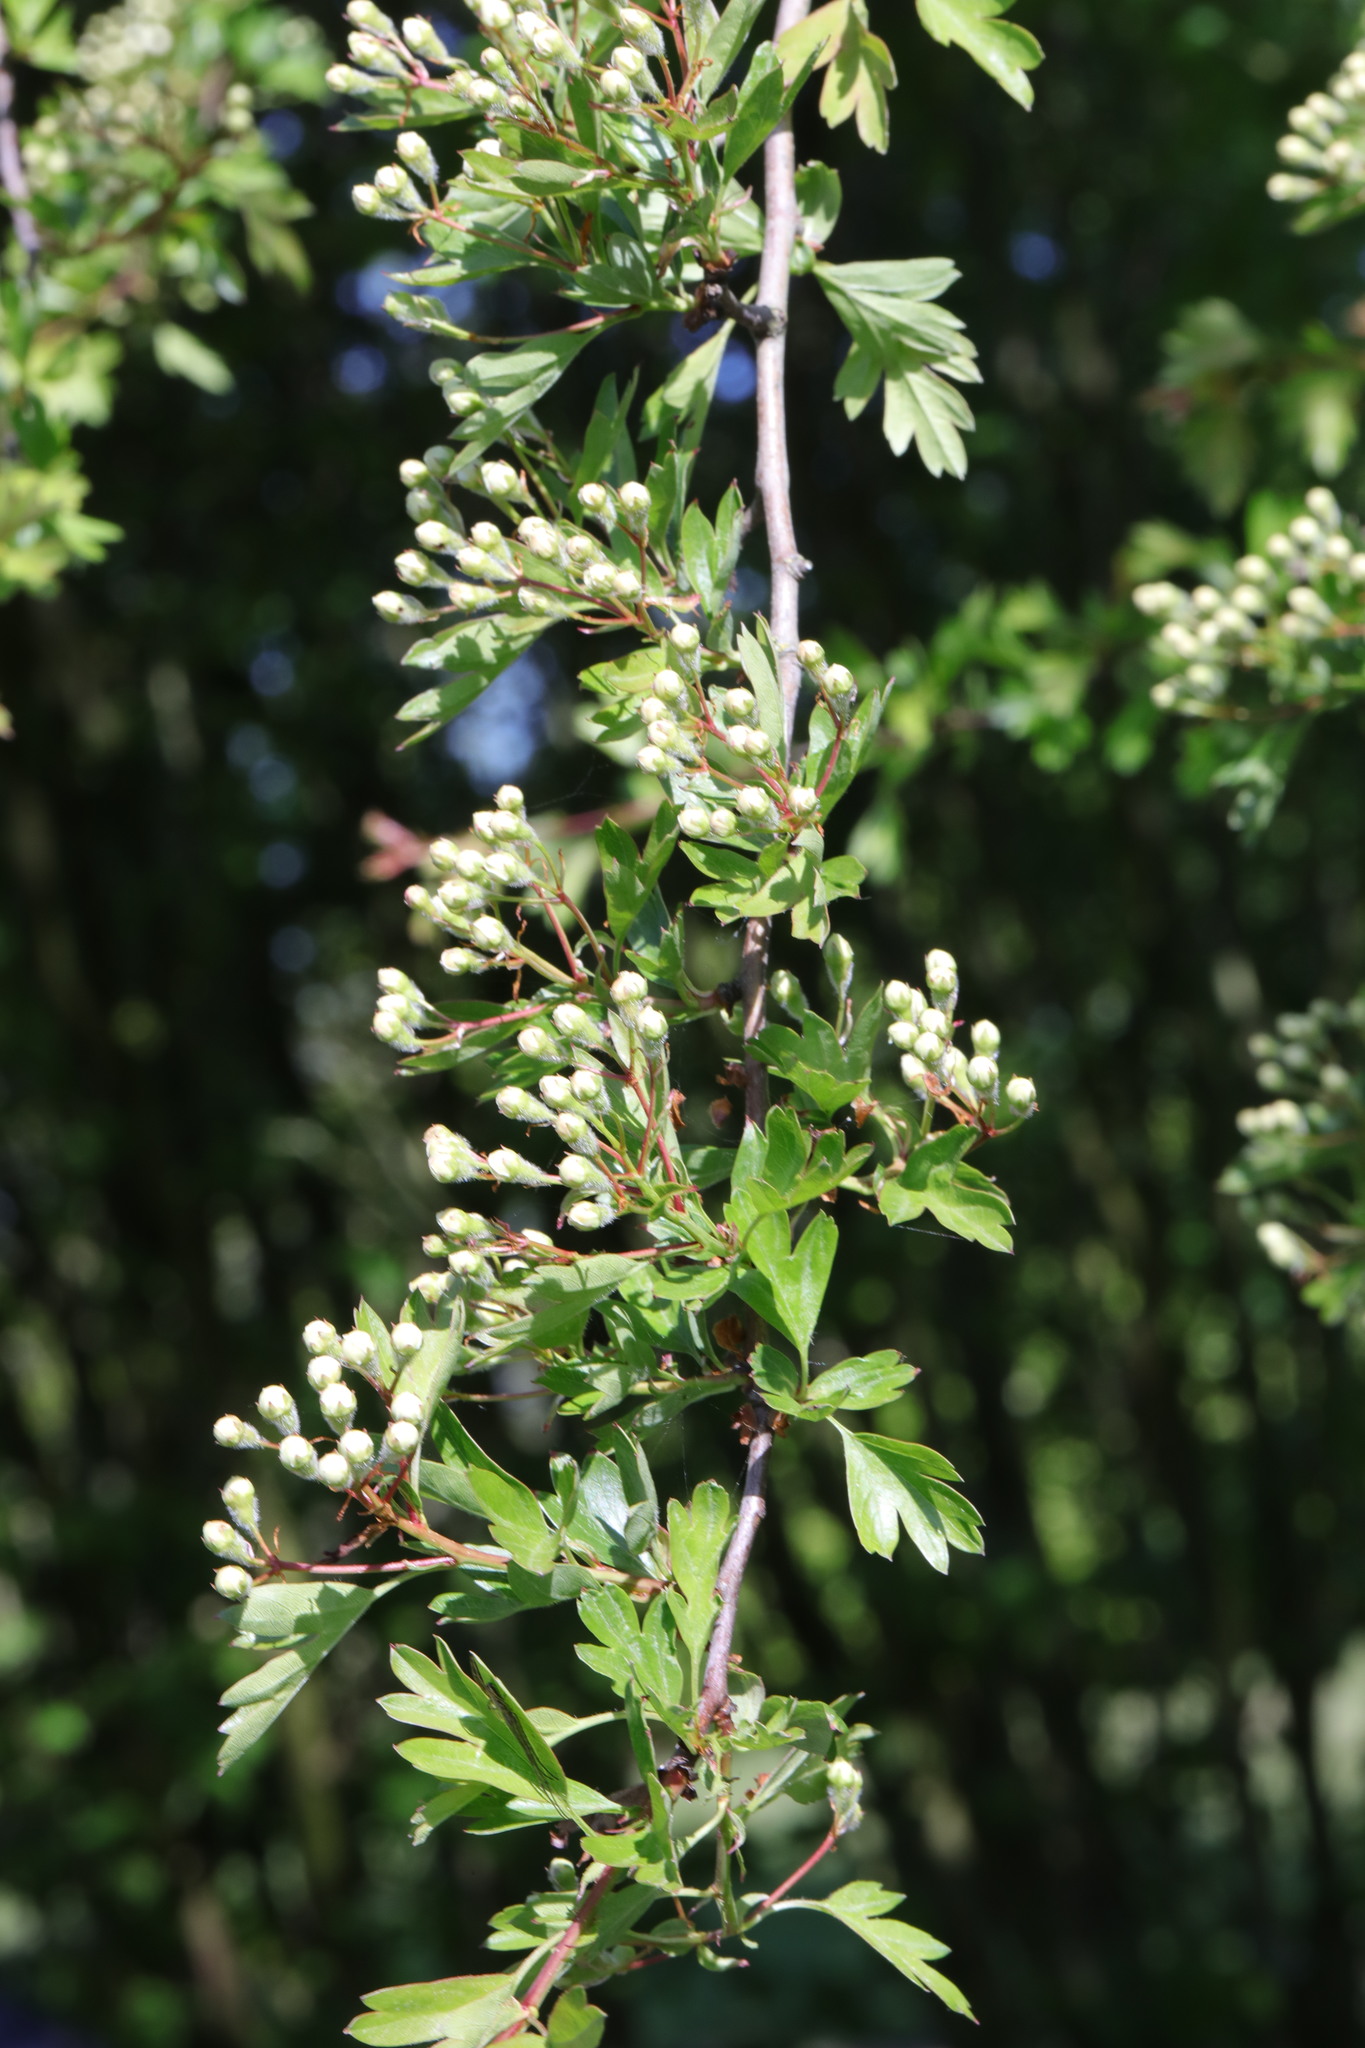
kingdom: Plantae
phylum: Tracheophyta
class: Magnoliopsida
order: Rosales
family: Rosaceae
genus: Crataegus
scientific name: Crataegus monogyna
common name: Hawthorn
